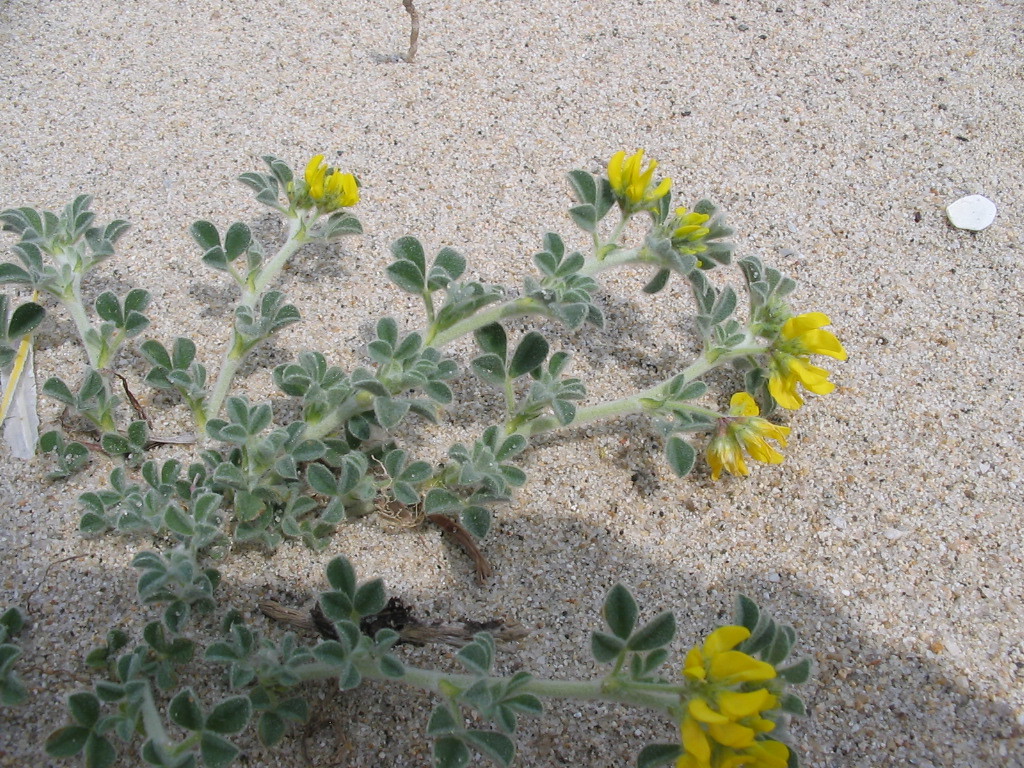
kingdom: Plantae
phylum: Tracheophyta
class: Magnoliopsida
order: Fabales
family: Fabaceae
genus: Medicago
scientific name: Medicago marina
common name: Sea medick
